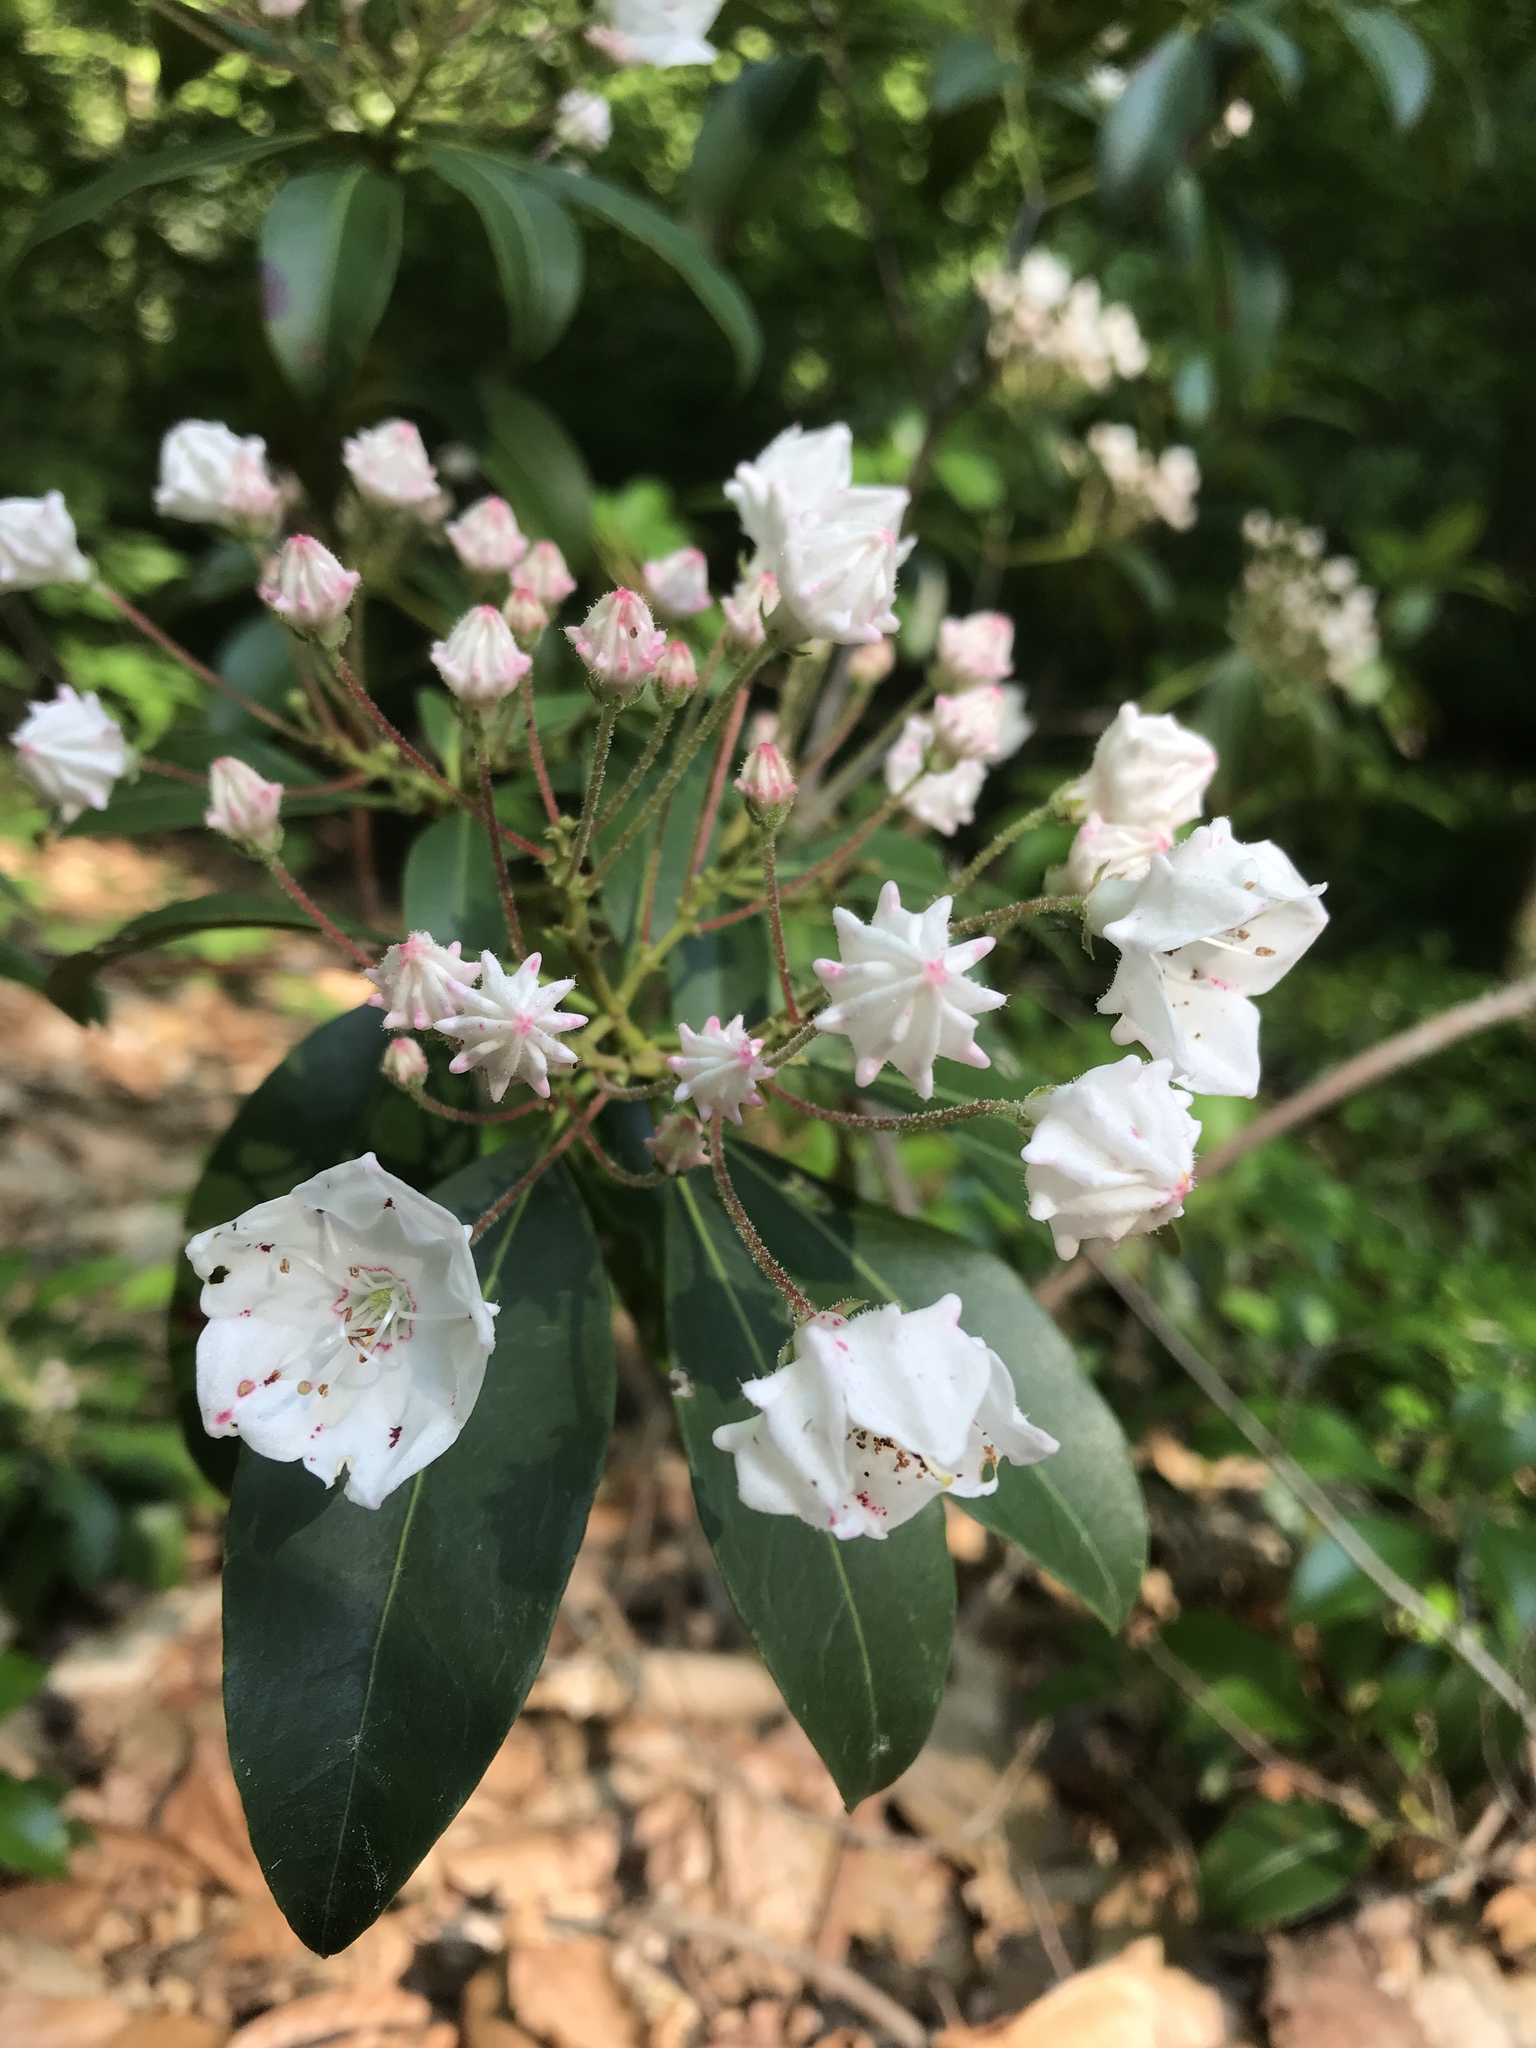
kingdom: Plantae
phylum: Tracheophyta
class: Magnoliopsida
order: Ericales
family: Ericaceae
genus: Kalmia
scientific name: Kalmia latifolia
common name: Mountain-laurel
